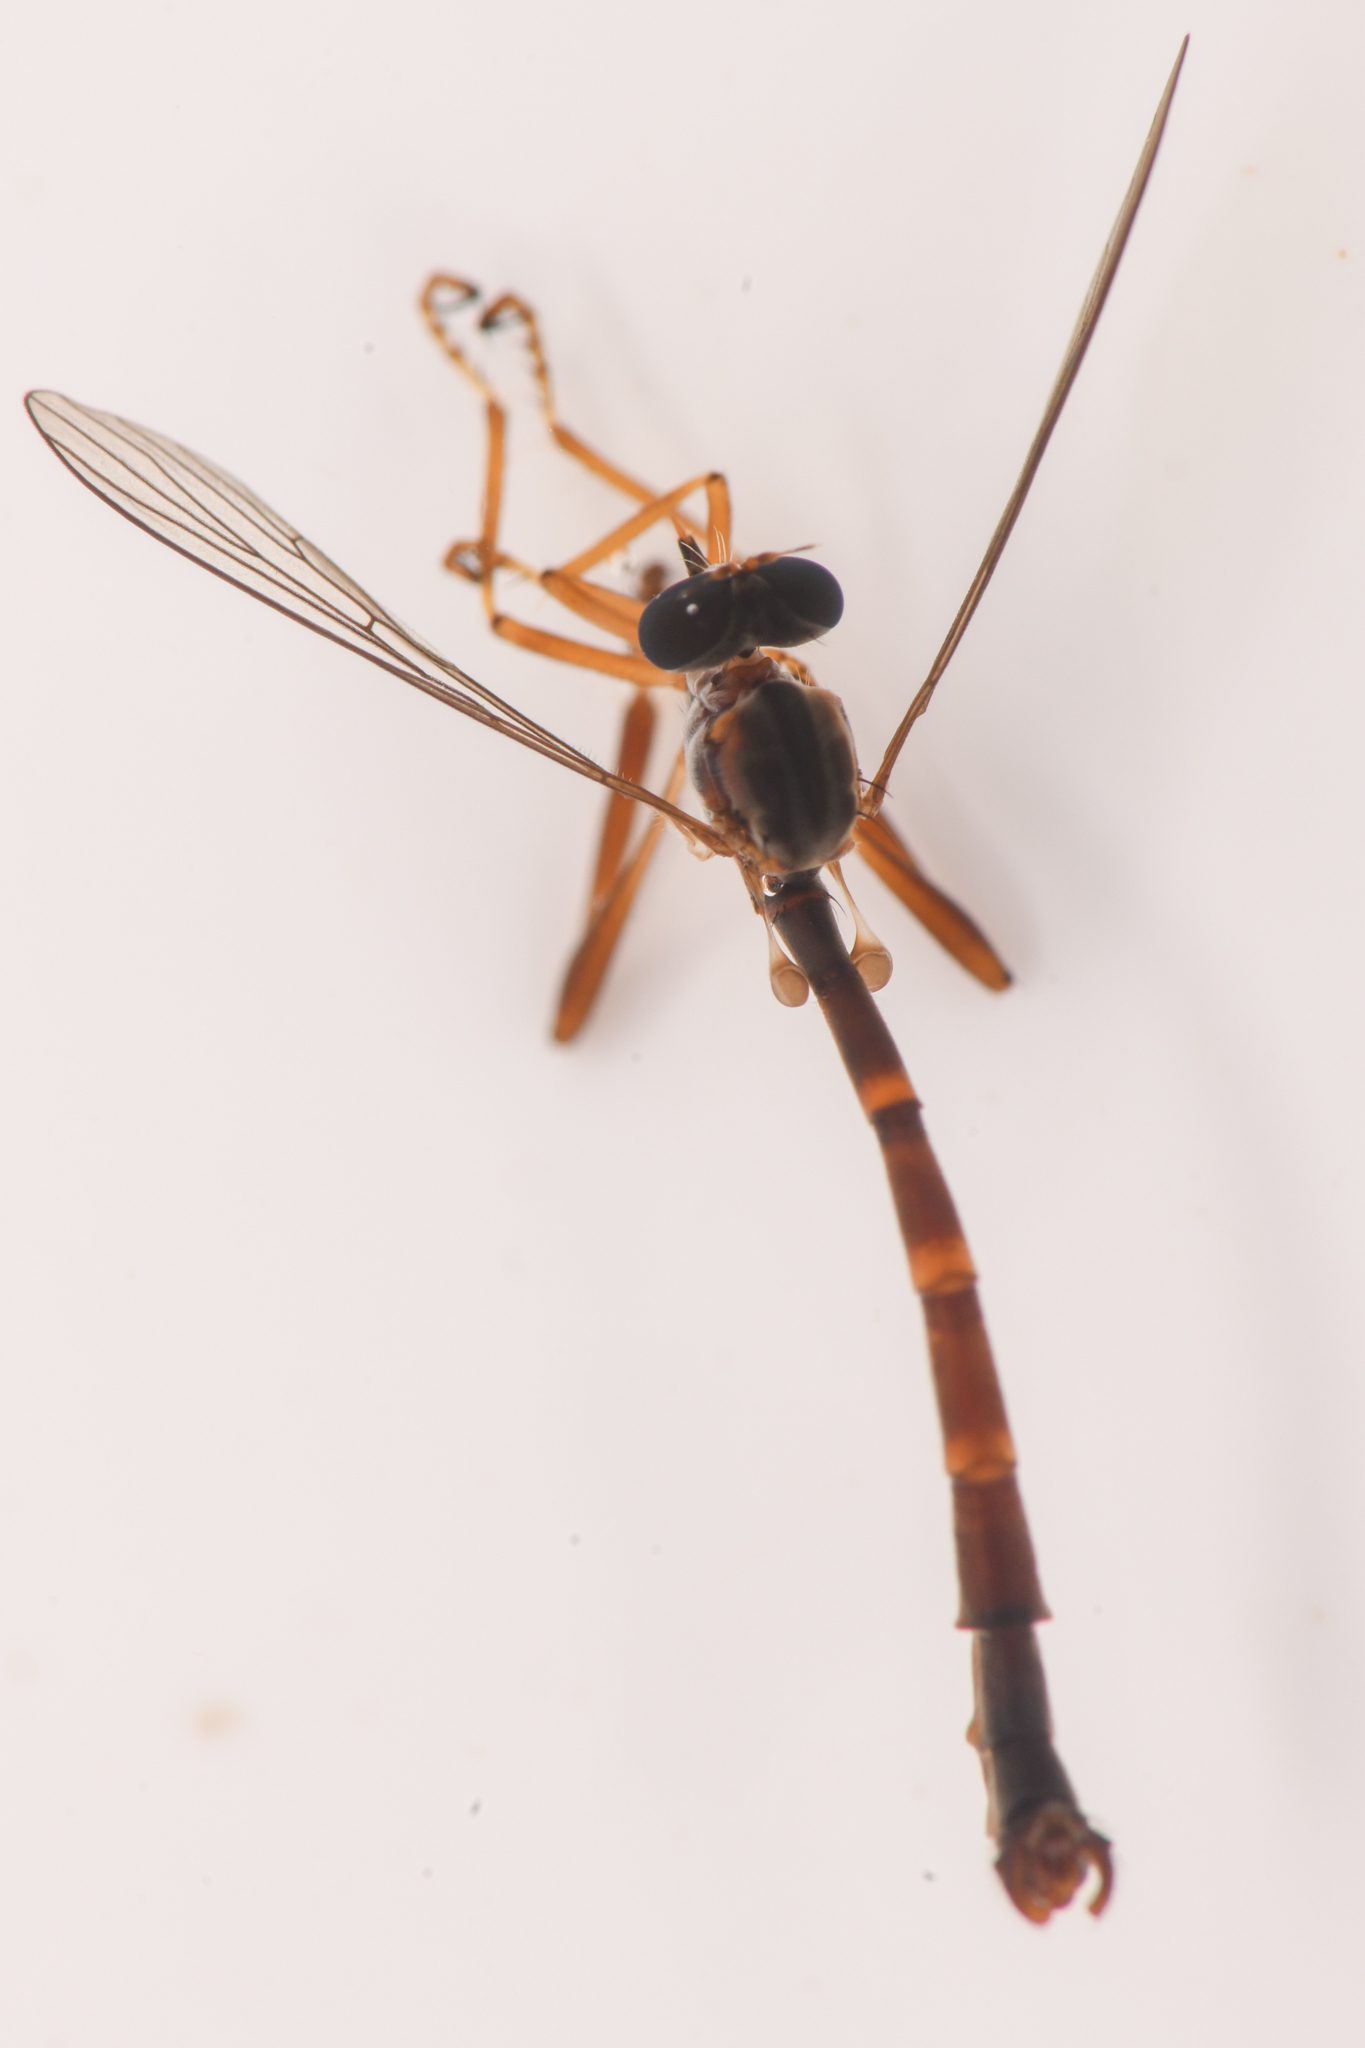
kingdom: Animalia
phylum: Arthropoda
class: Insecta
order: Diptera
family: Asilidae
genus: Leptogaster
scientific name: Leptogaster arida
